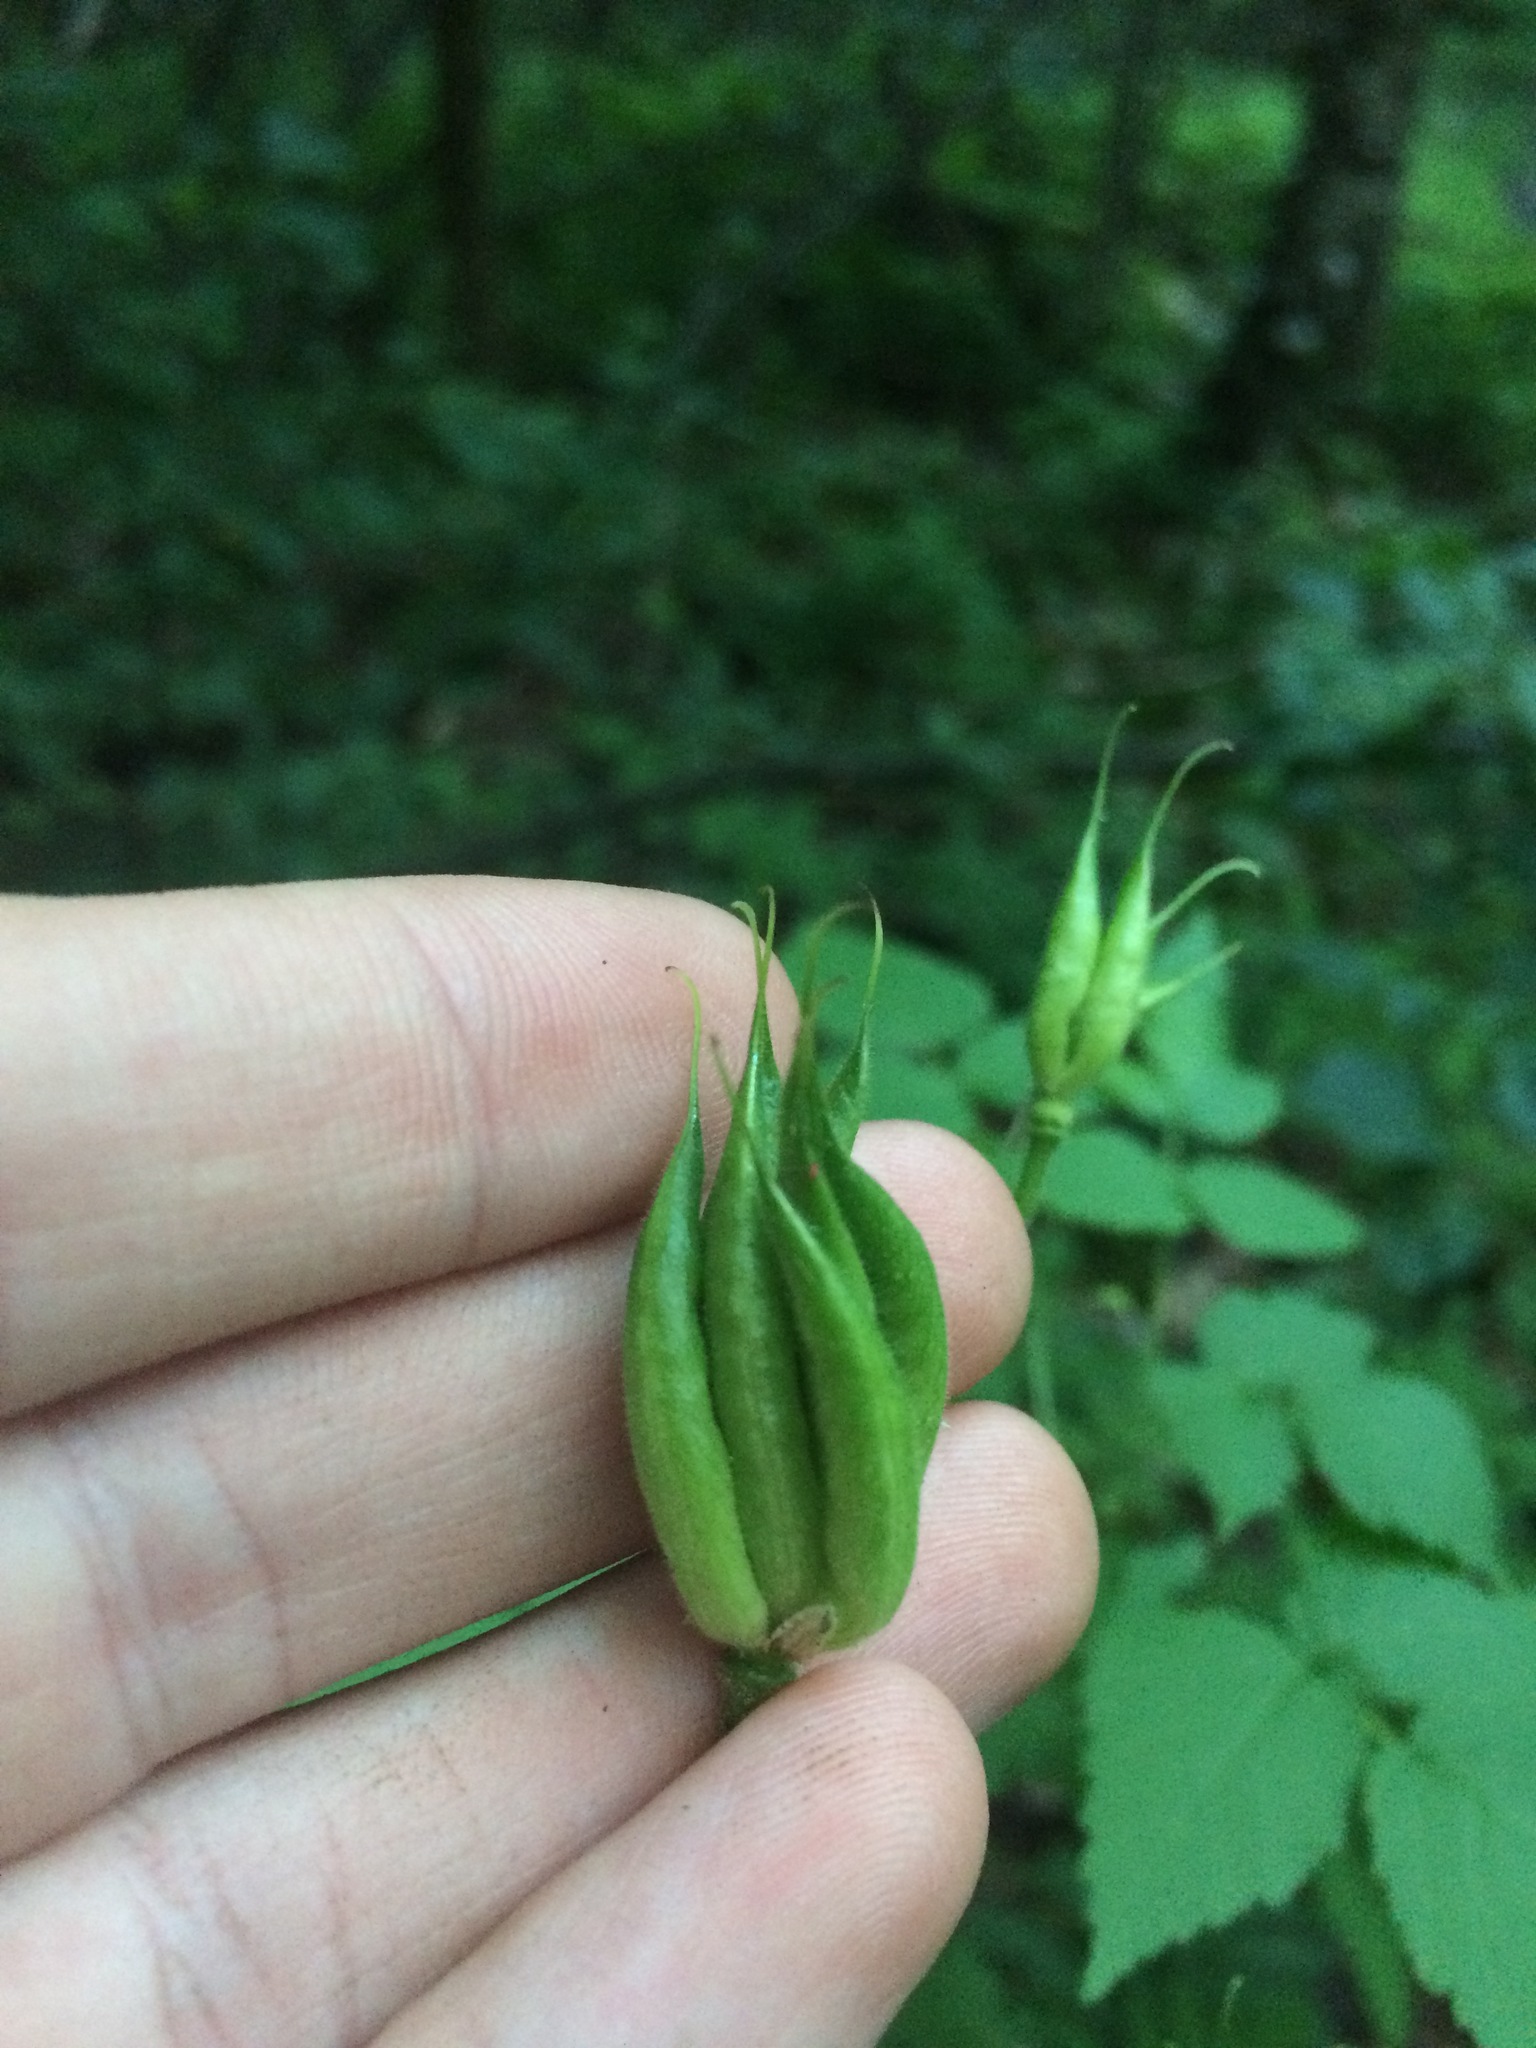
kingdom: Plantae
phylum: Tracheophyta
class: Magnoliopsida
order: Ranunculales
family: Ranunculaceae
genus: Aquilegia
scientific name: Aquilegia
